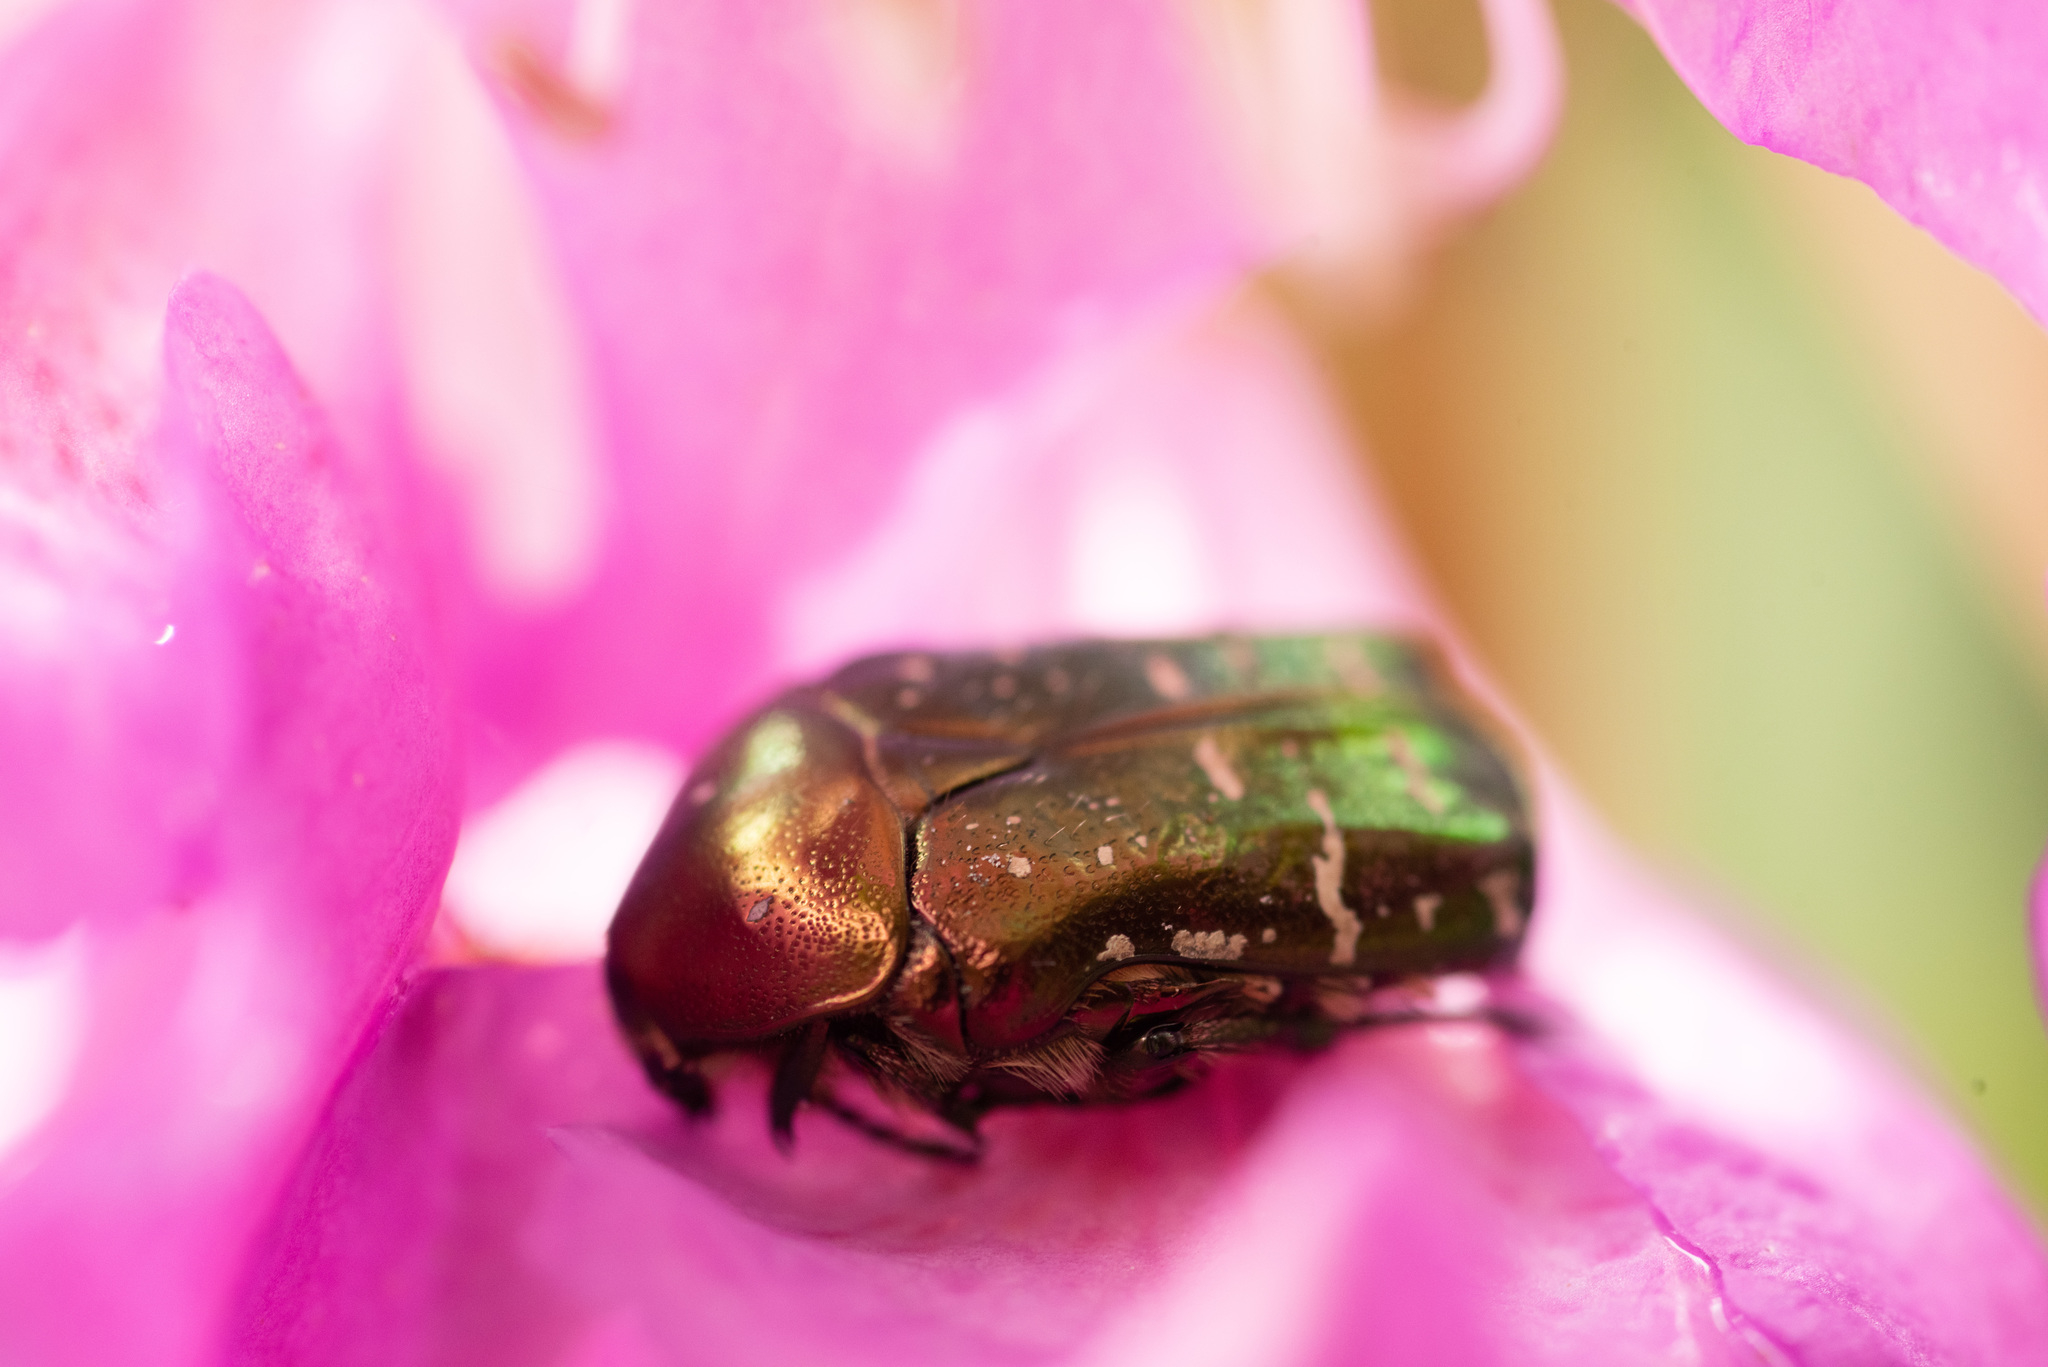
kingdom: Animalia
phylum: Arthropoda
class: Insecta
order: Coleoptera
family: Scarabaeidae
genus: Cetonia
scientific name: Cetonia aurata
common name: Rose chafer
